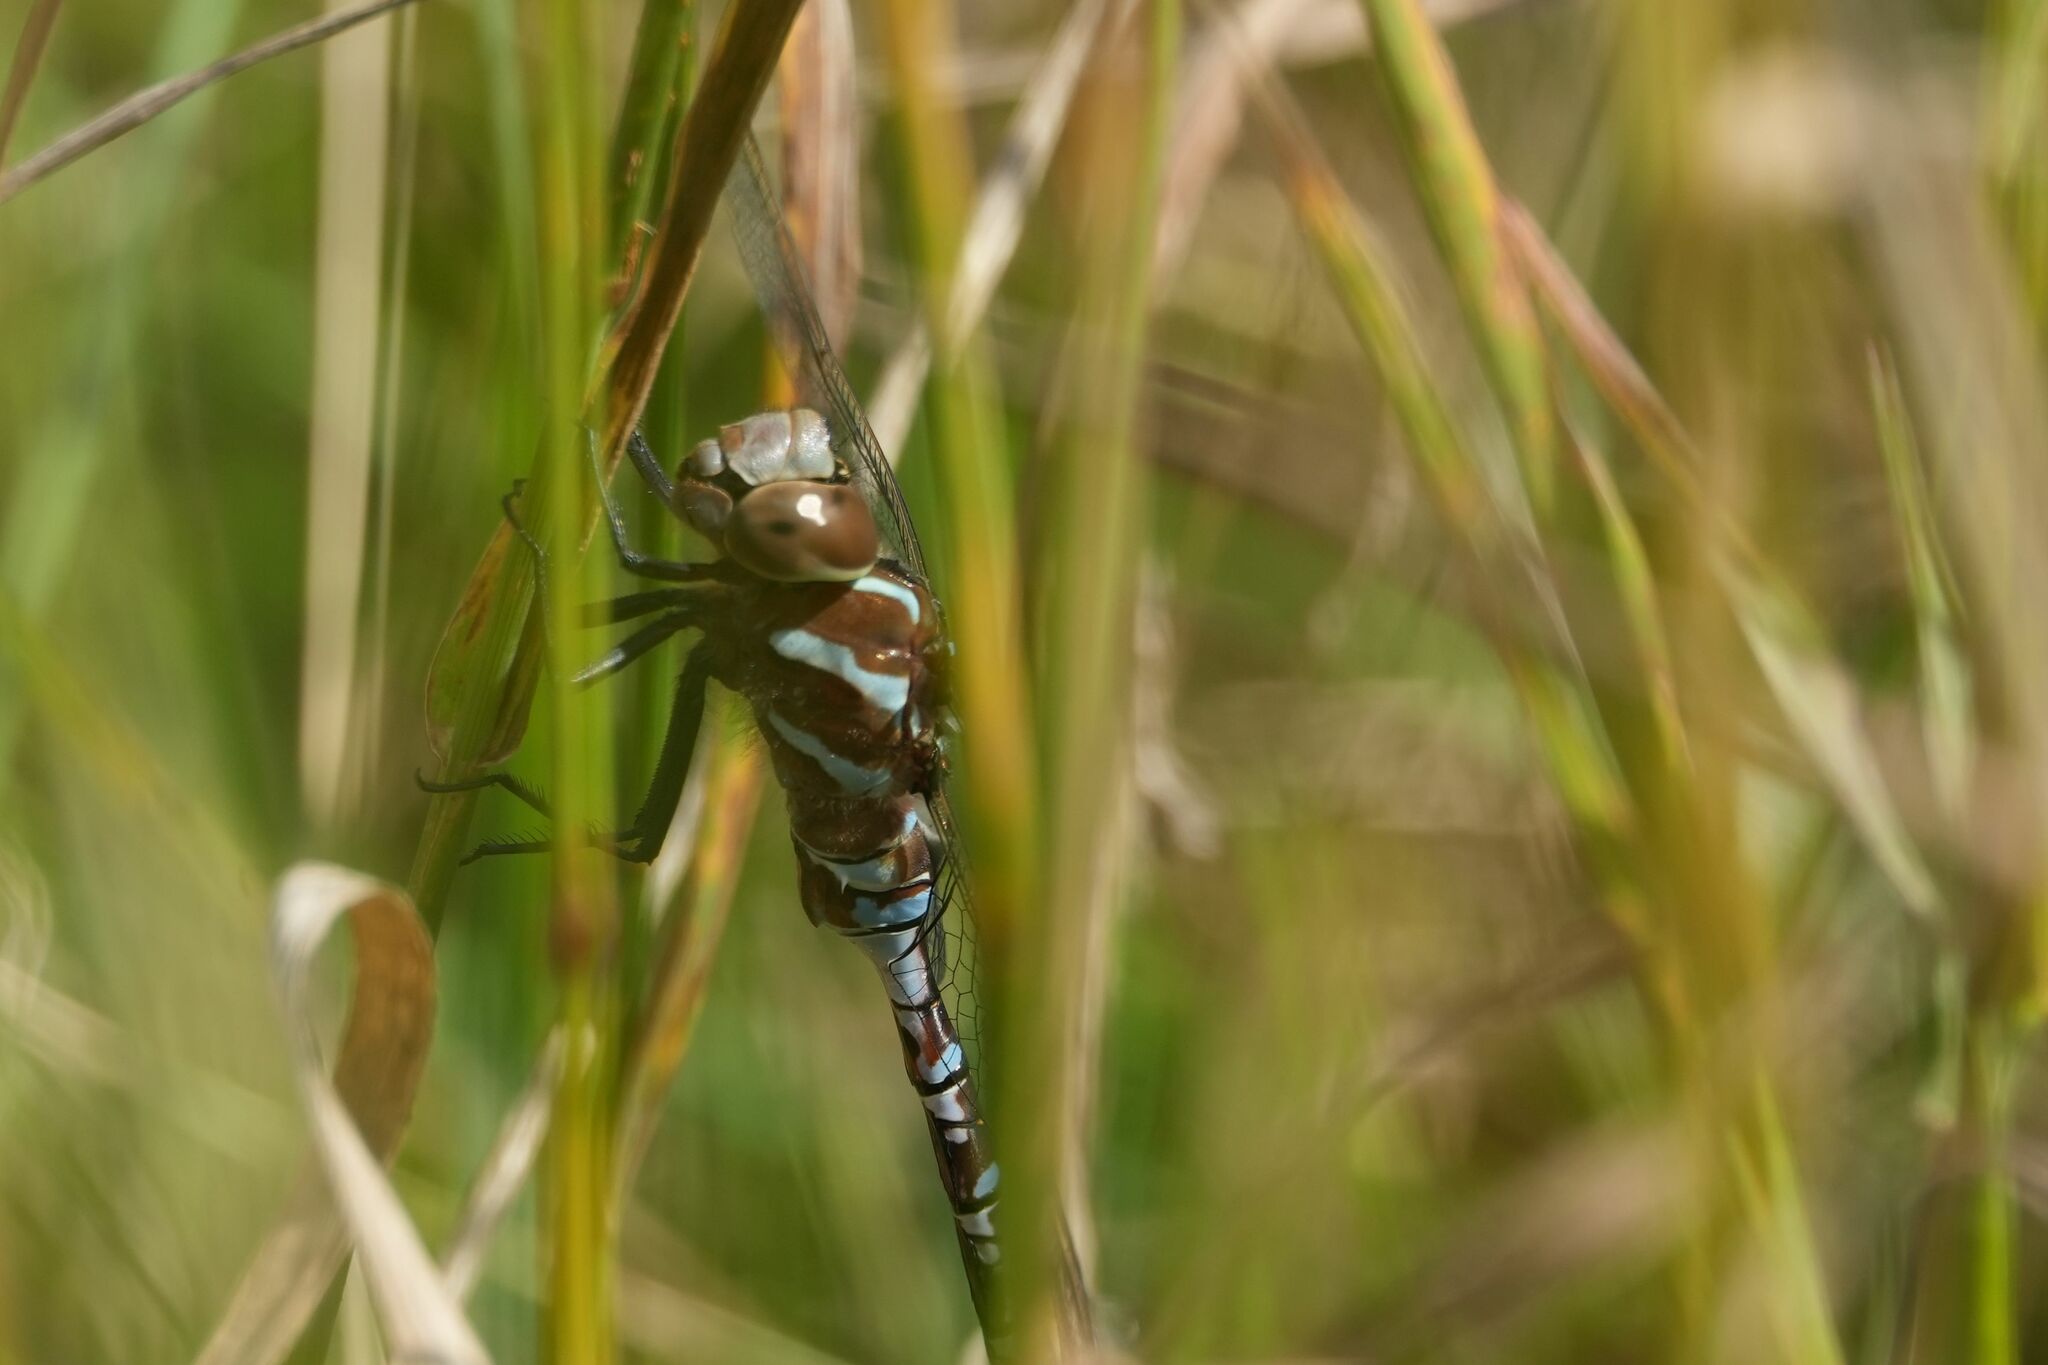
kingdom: Animalia
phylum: Arthropoda
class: Insecta
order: Odonata
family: Aeshnidae
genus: Aeshna
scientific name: Aeshna constricta
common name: Lance-tipped darner
